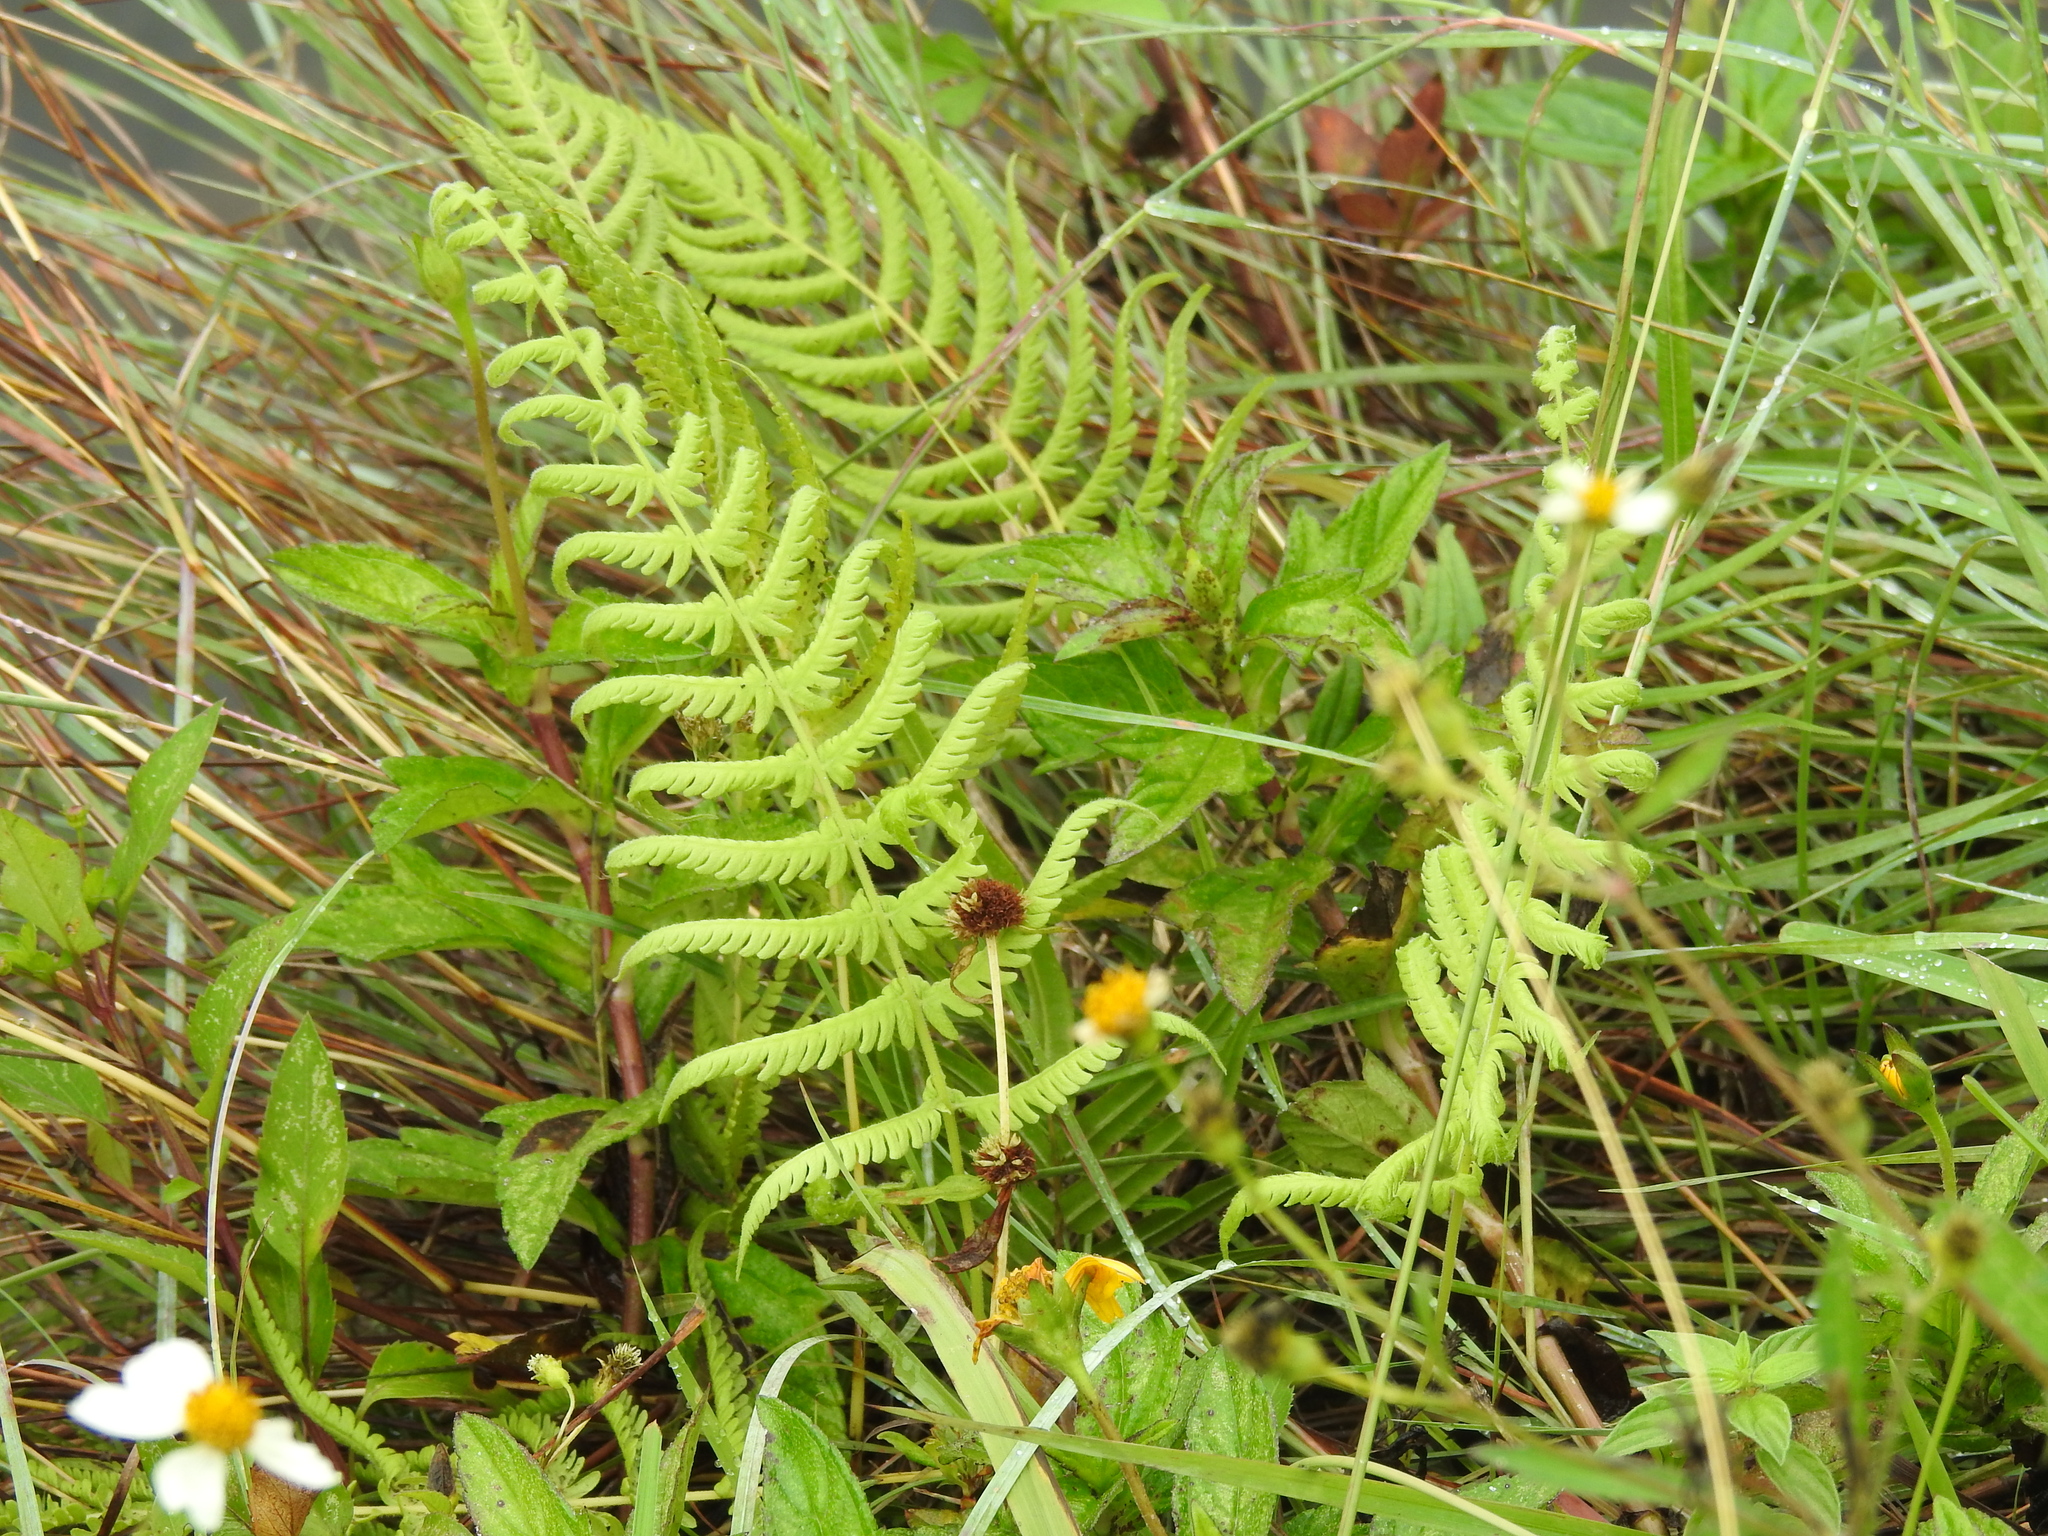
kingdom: Plantae
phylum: Tracheophyta
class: Polypodiopsida
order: Polypodiales
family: Thelypteridaceae
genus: Pelazoneuron
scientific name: Pelazoneuron kunthii
